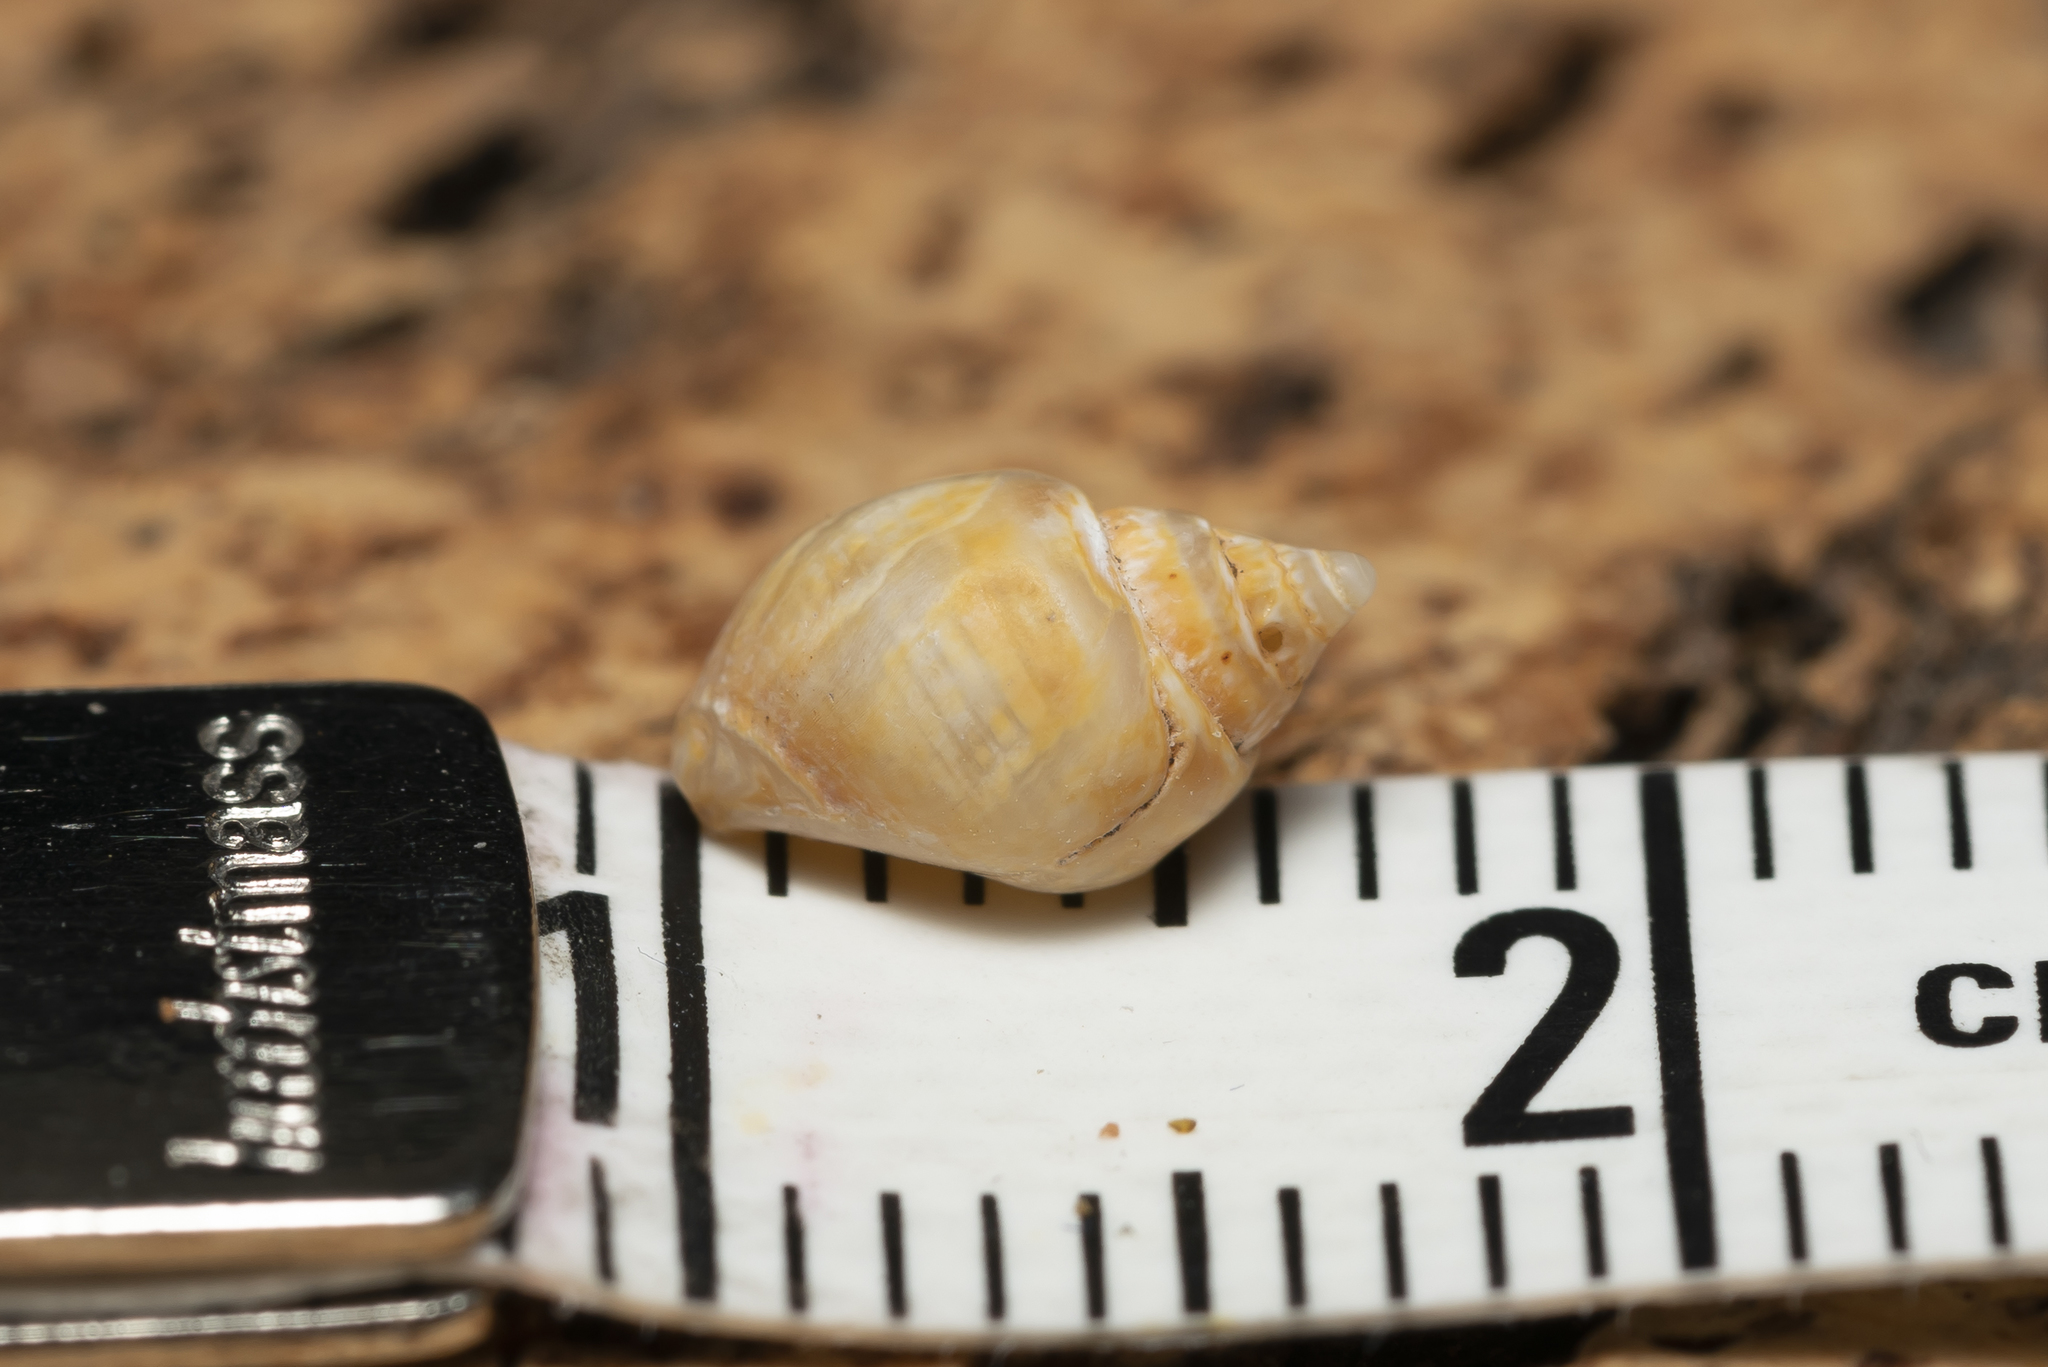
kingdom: Animalia
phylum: Mollusca
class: Gastropoda
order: Neogastropoda
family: Nassariidae
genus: Tritia
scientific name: Tritia mutabilis
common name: Mutable nassa
